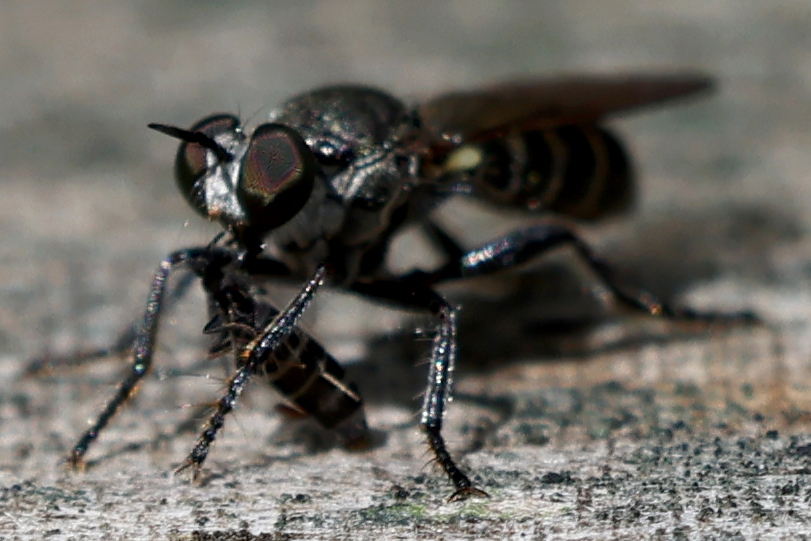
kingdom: Animalia
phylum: Arthropoda
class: Insecta
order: Diptera
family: Asilidae
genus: Atomosia
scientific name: Atomosia puella
